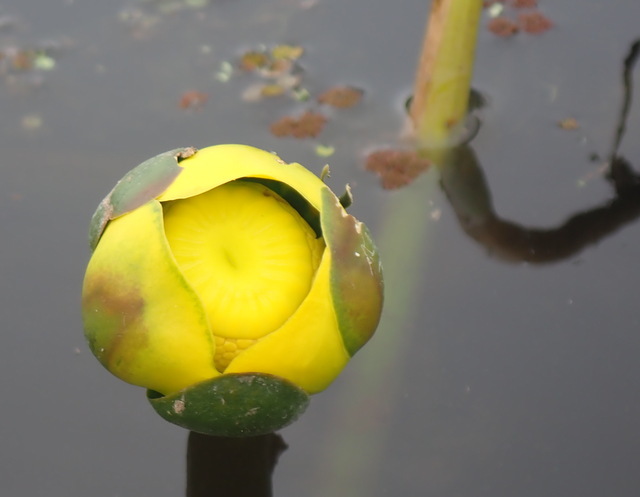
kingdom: Plantae
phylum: Tracheophyta
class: Magnoliopsida
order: Nymphaeales
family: Nymphaeaceae
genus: Nuphar
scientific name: Nuphar advena
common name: Spatter-dock
